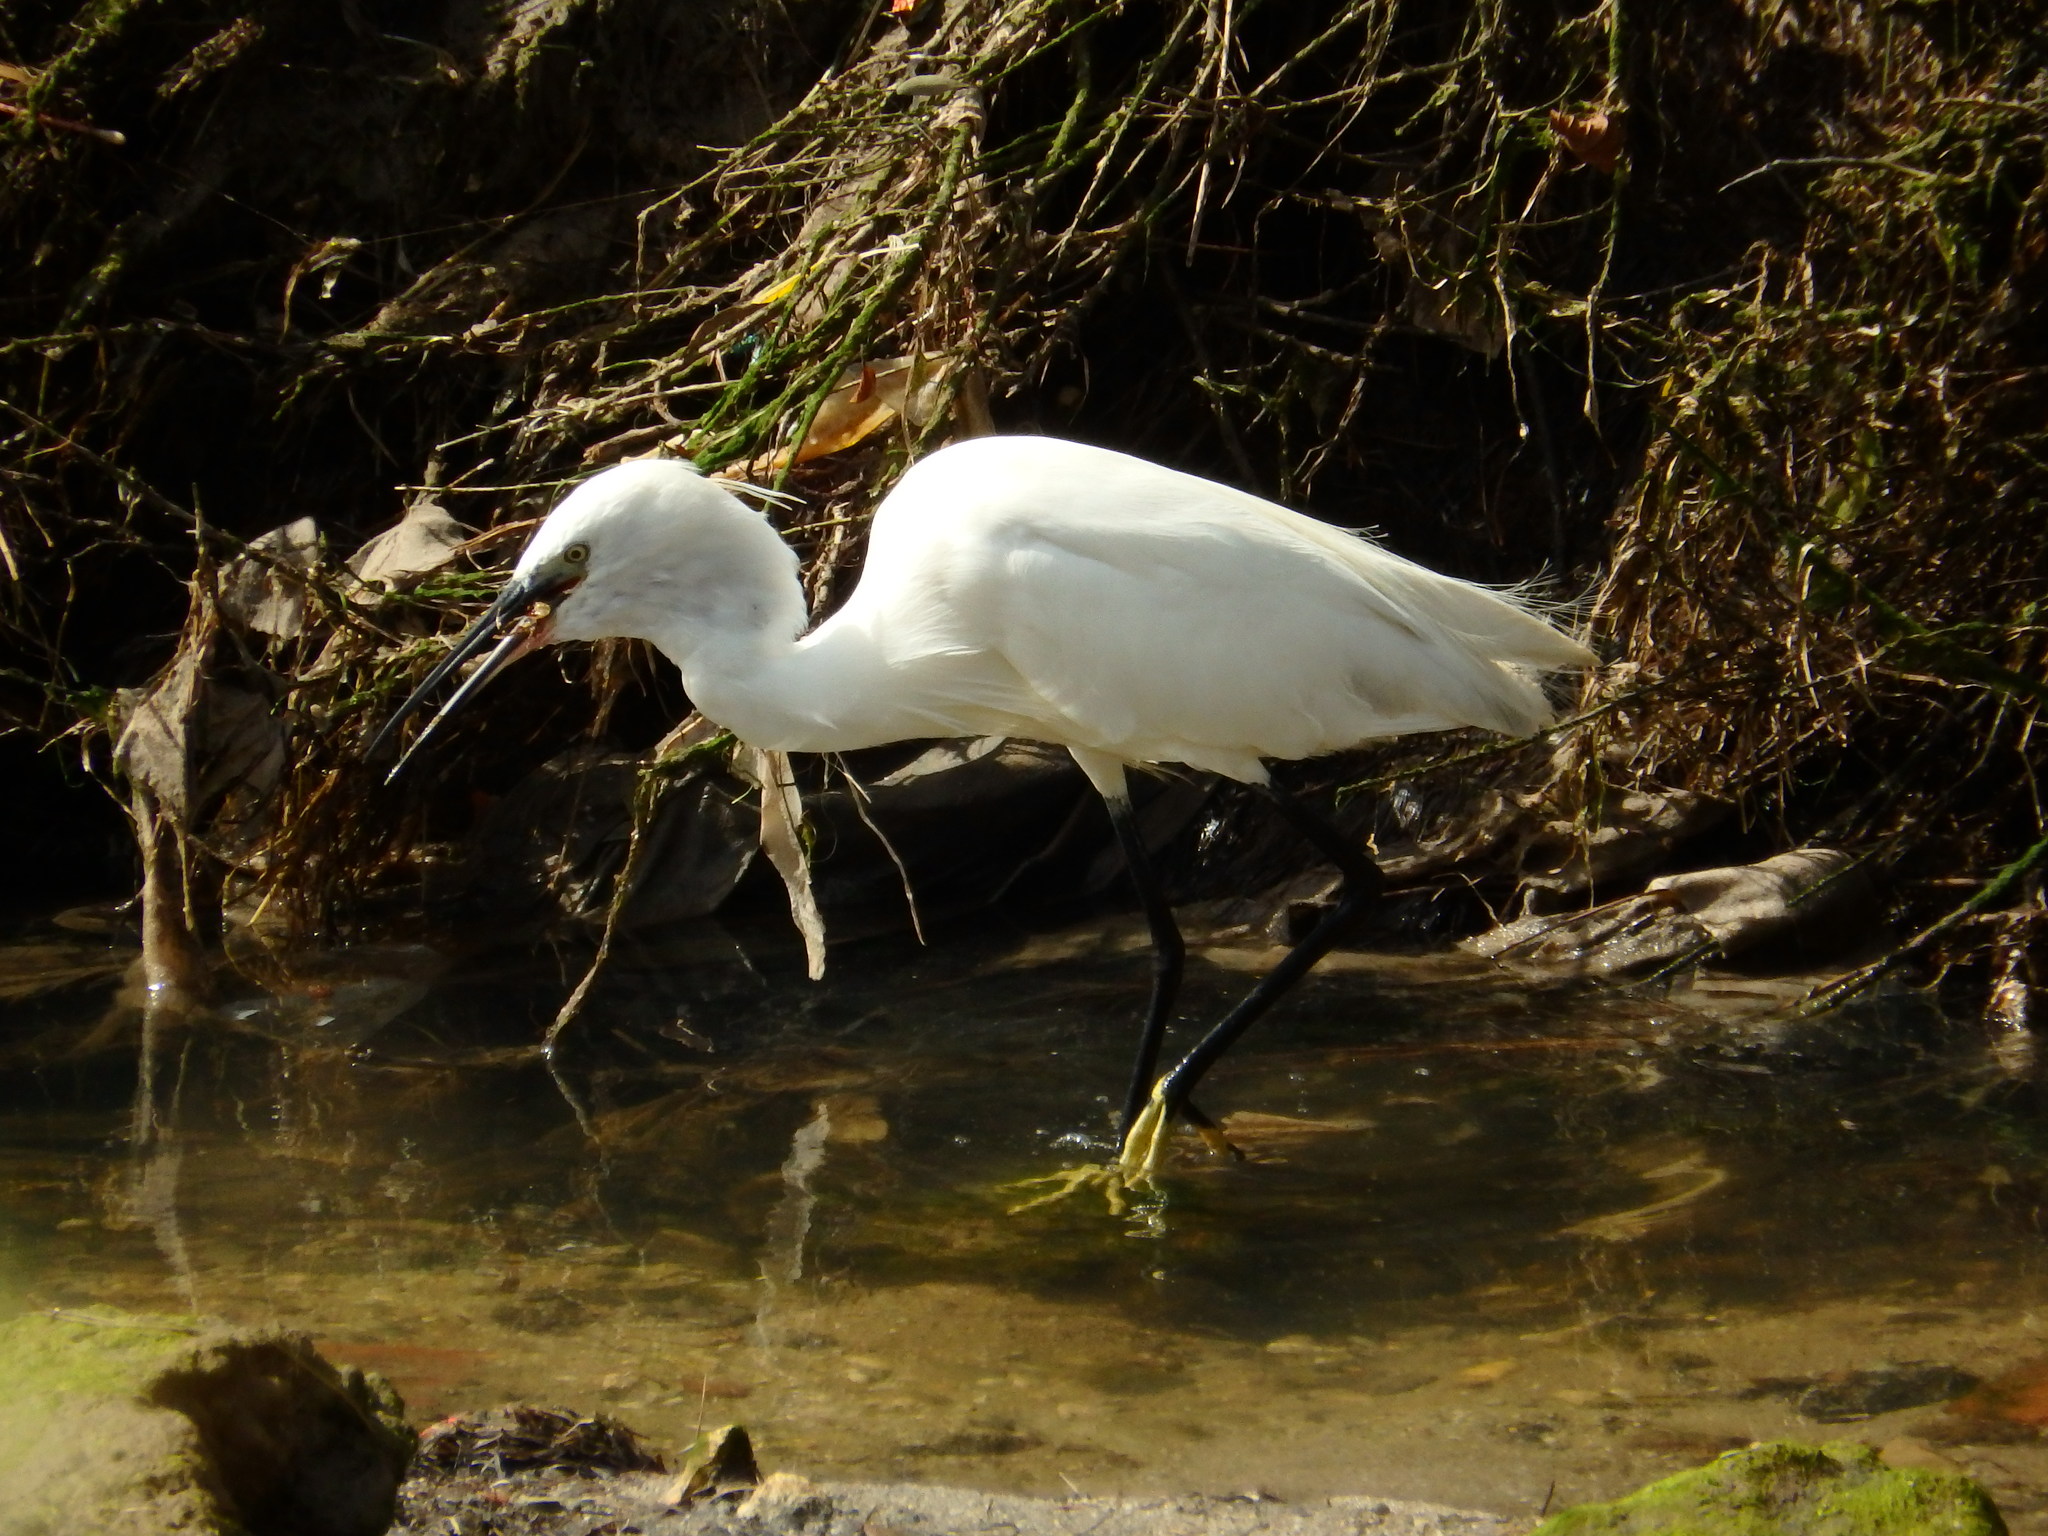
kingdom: Animalia
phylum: Chordata
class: Aves
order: Pelecaniformes
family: Ardeidae
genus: Egretta
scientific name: Egretta garzetta
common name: Little egret
